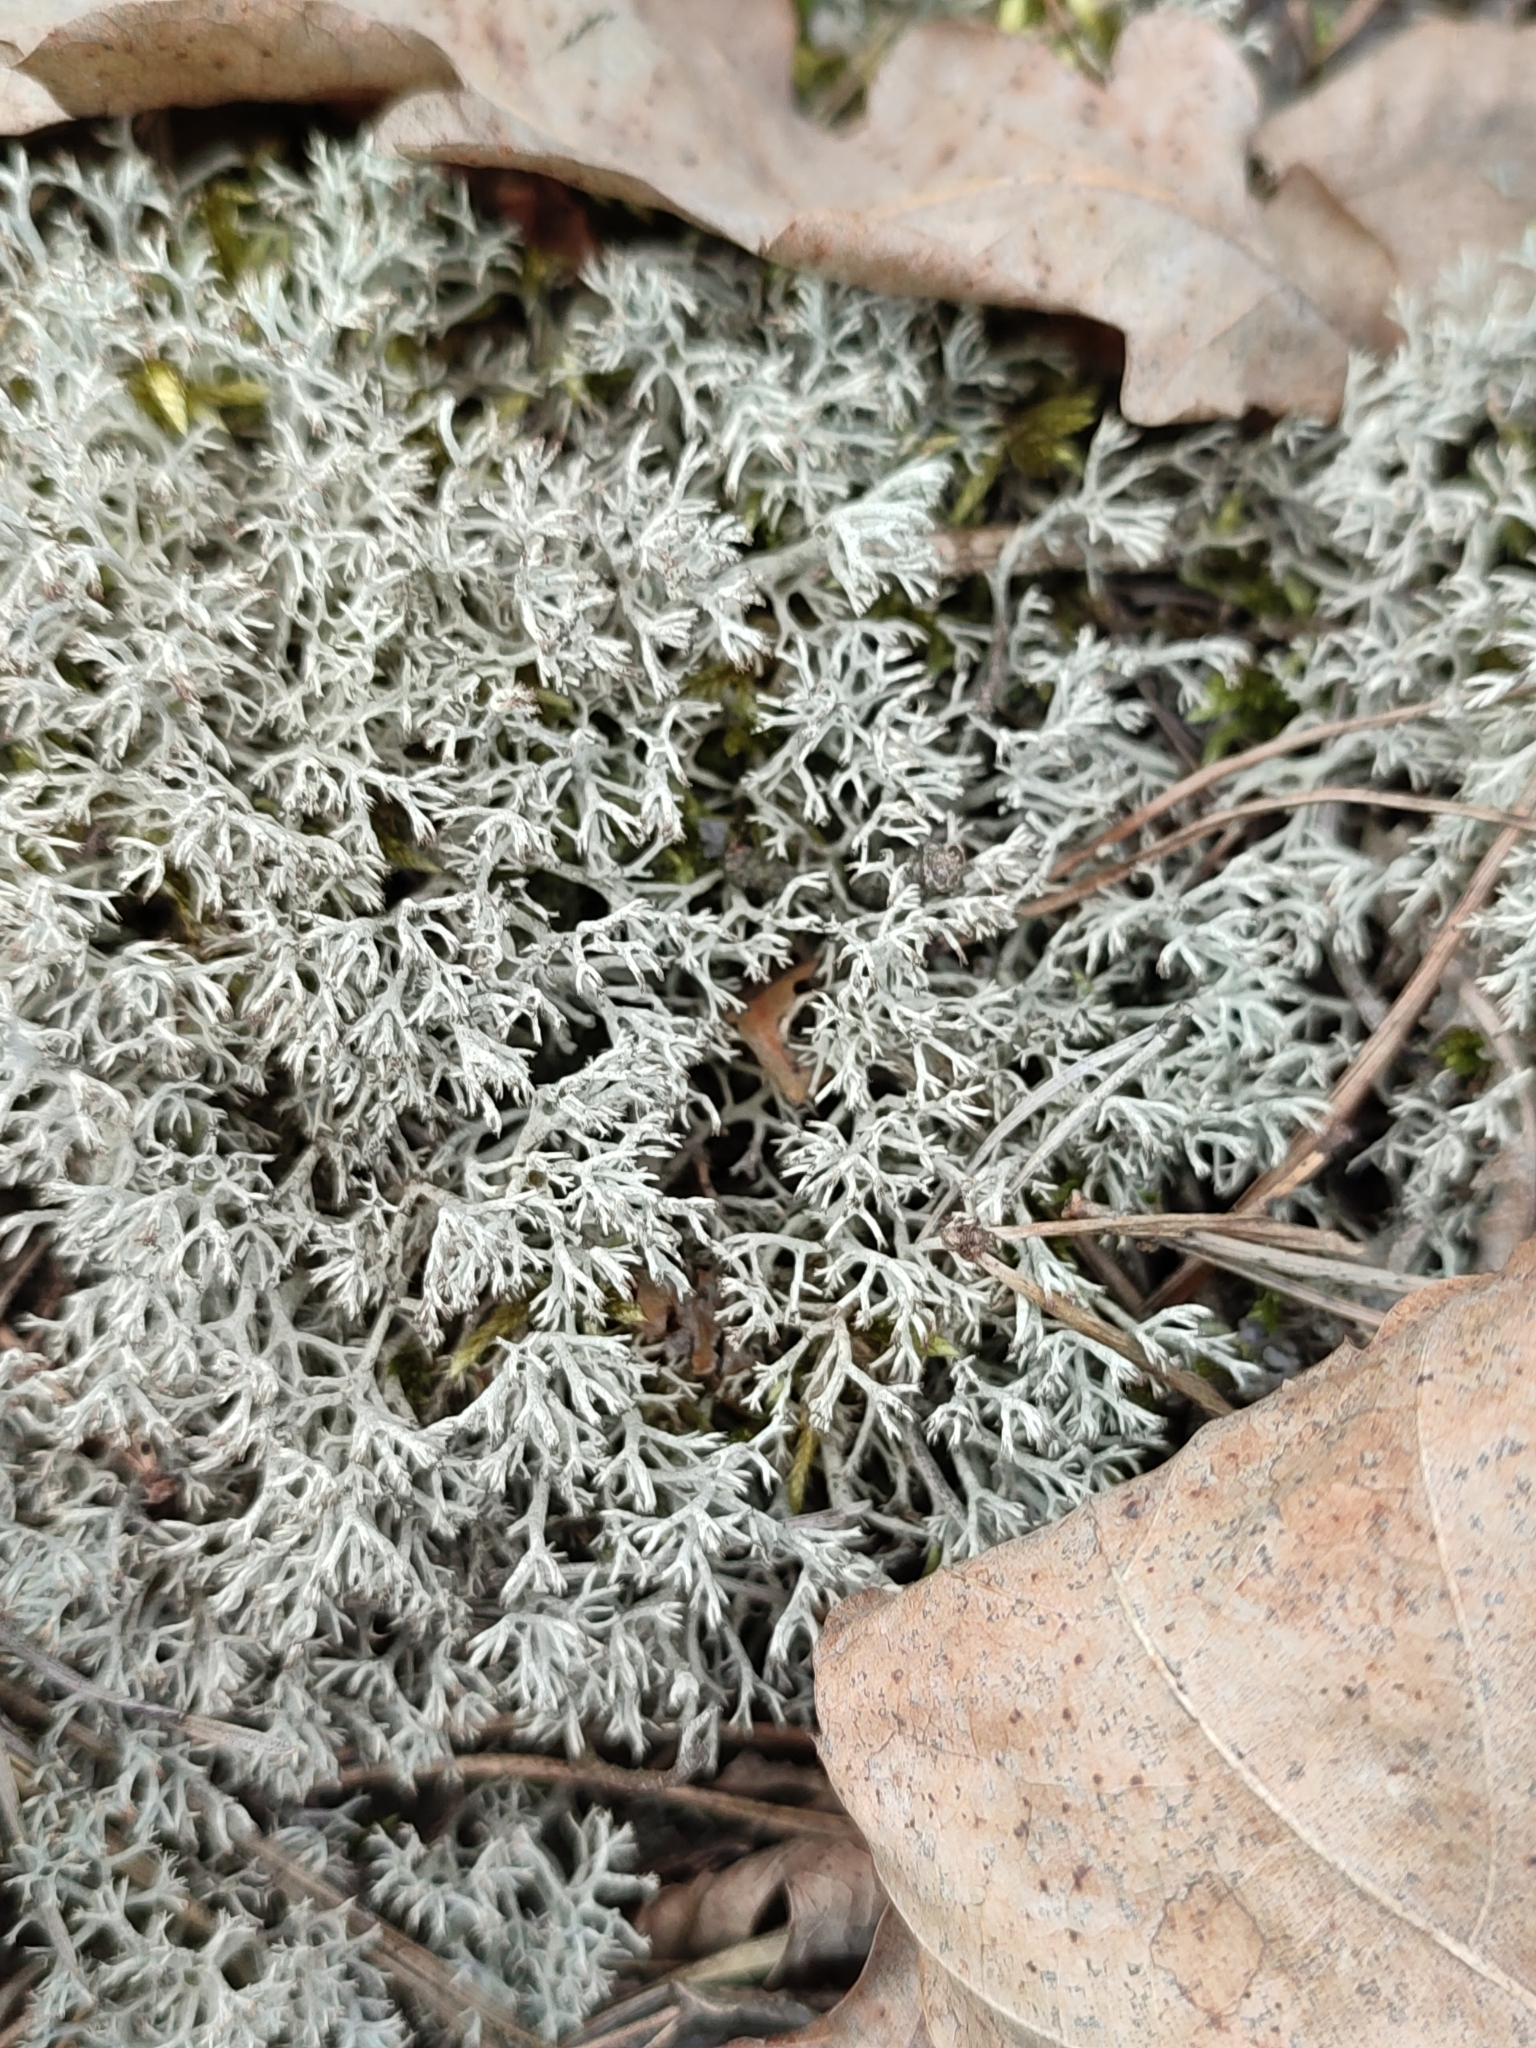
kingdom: Fungi
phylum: Ascomycota
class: Lecanoromycetes
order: Lecanorales
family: Cladoniaceae
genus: Cladonia
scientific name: Cladonia rangiferina
